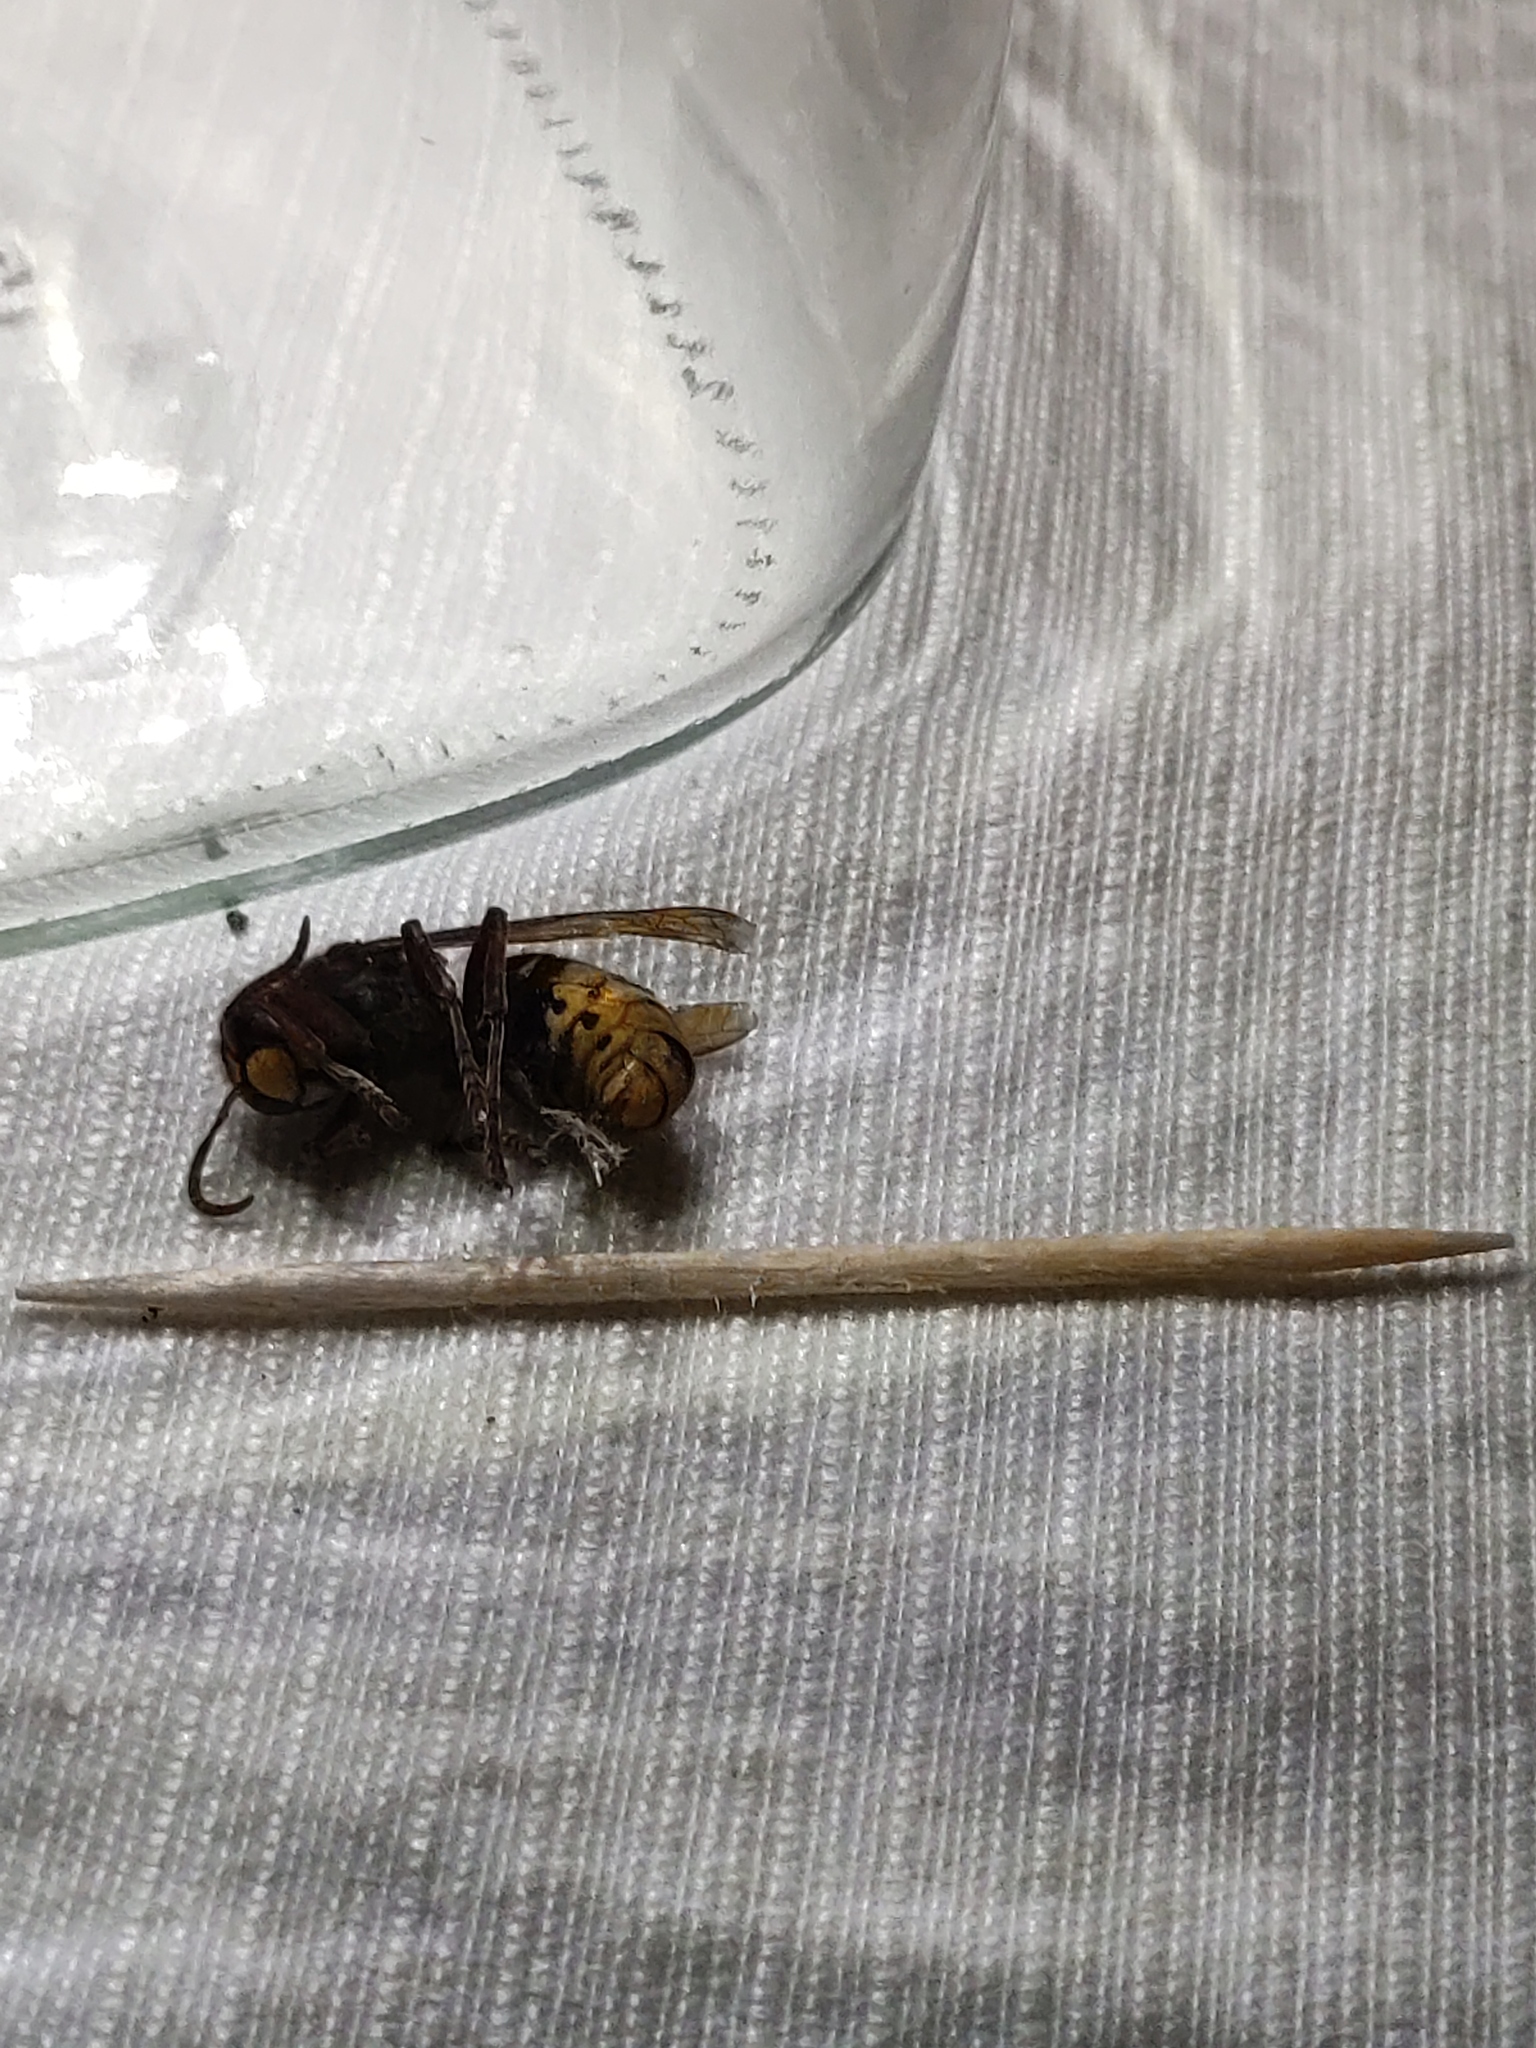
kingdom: Animalia
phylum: Arthropoda
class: Insecta
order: Hymenoptera
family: Vespidae
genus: Vespa
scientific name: Vespa crabro
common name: Hornet
